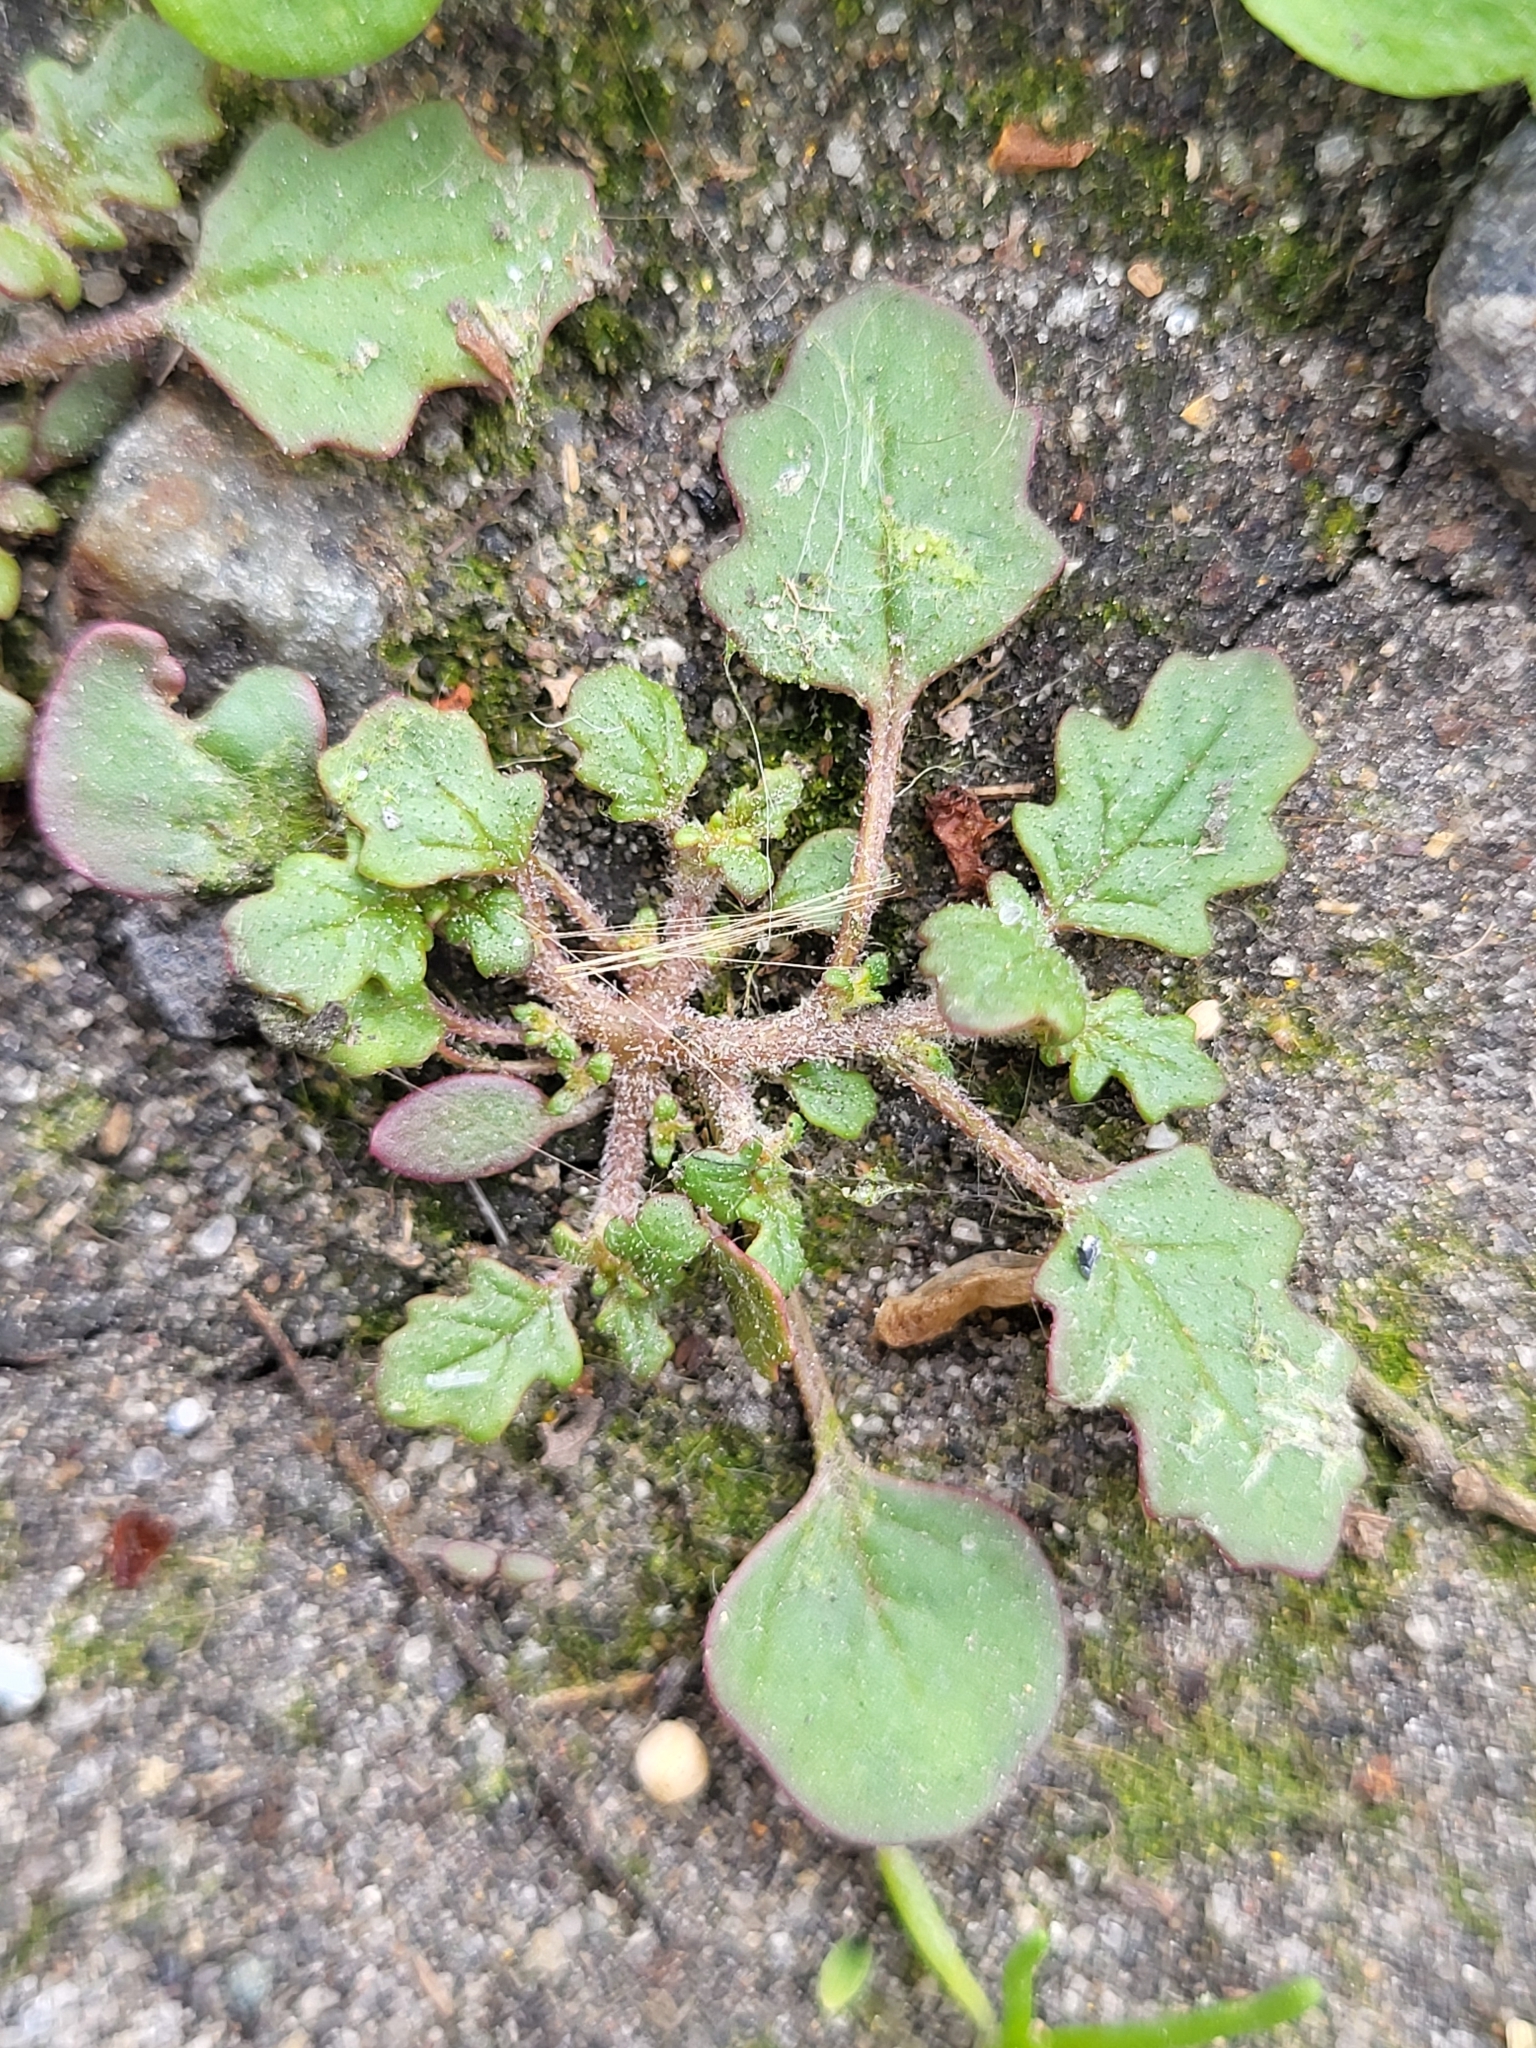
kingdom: Plantae
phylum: Tracheophyta
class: Magnoliopsida
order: Caryophyllales
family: Amaranthaceae
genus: Dysphania
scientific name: Dysphania pumilio
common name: Clammy goosefoot
